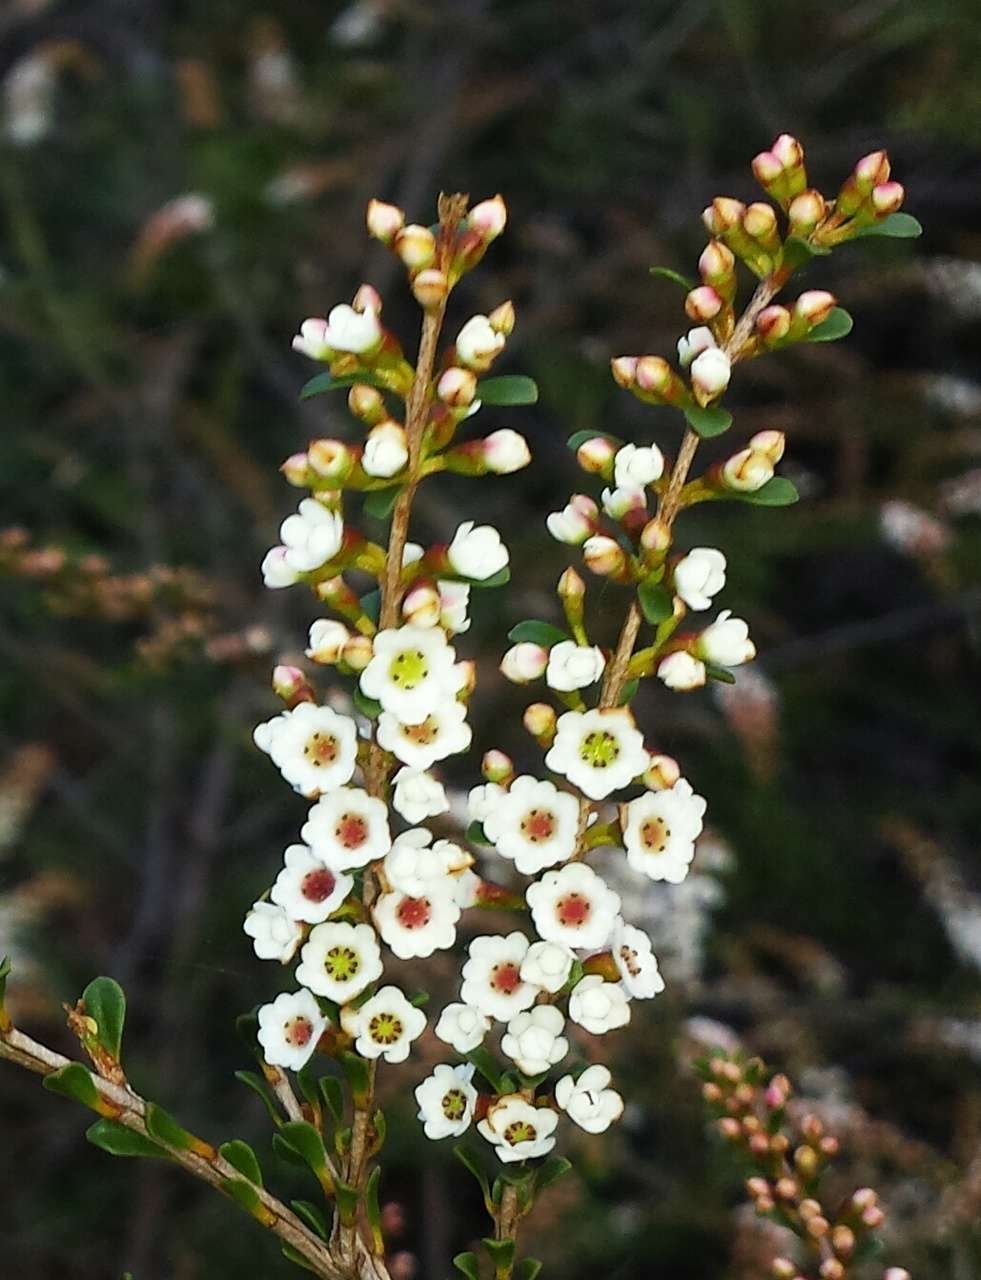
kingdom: Plantae
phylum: Tracheophyta
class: Magnoliopsida
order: Myrtales
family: Myrtaceae
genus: Thryptomene
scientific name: Thryptomene calycina
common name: Grampians thryptomene
